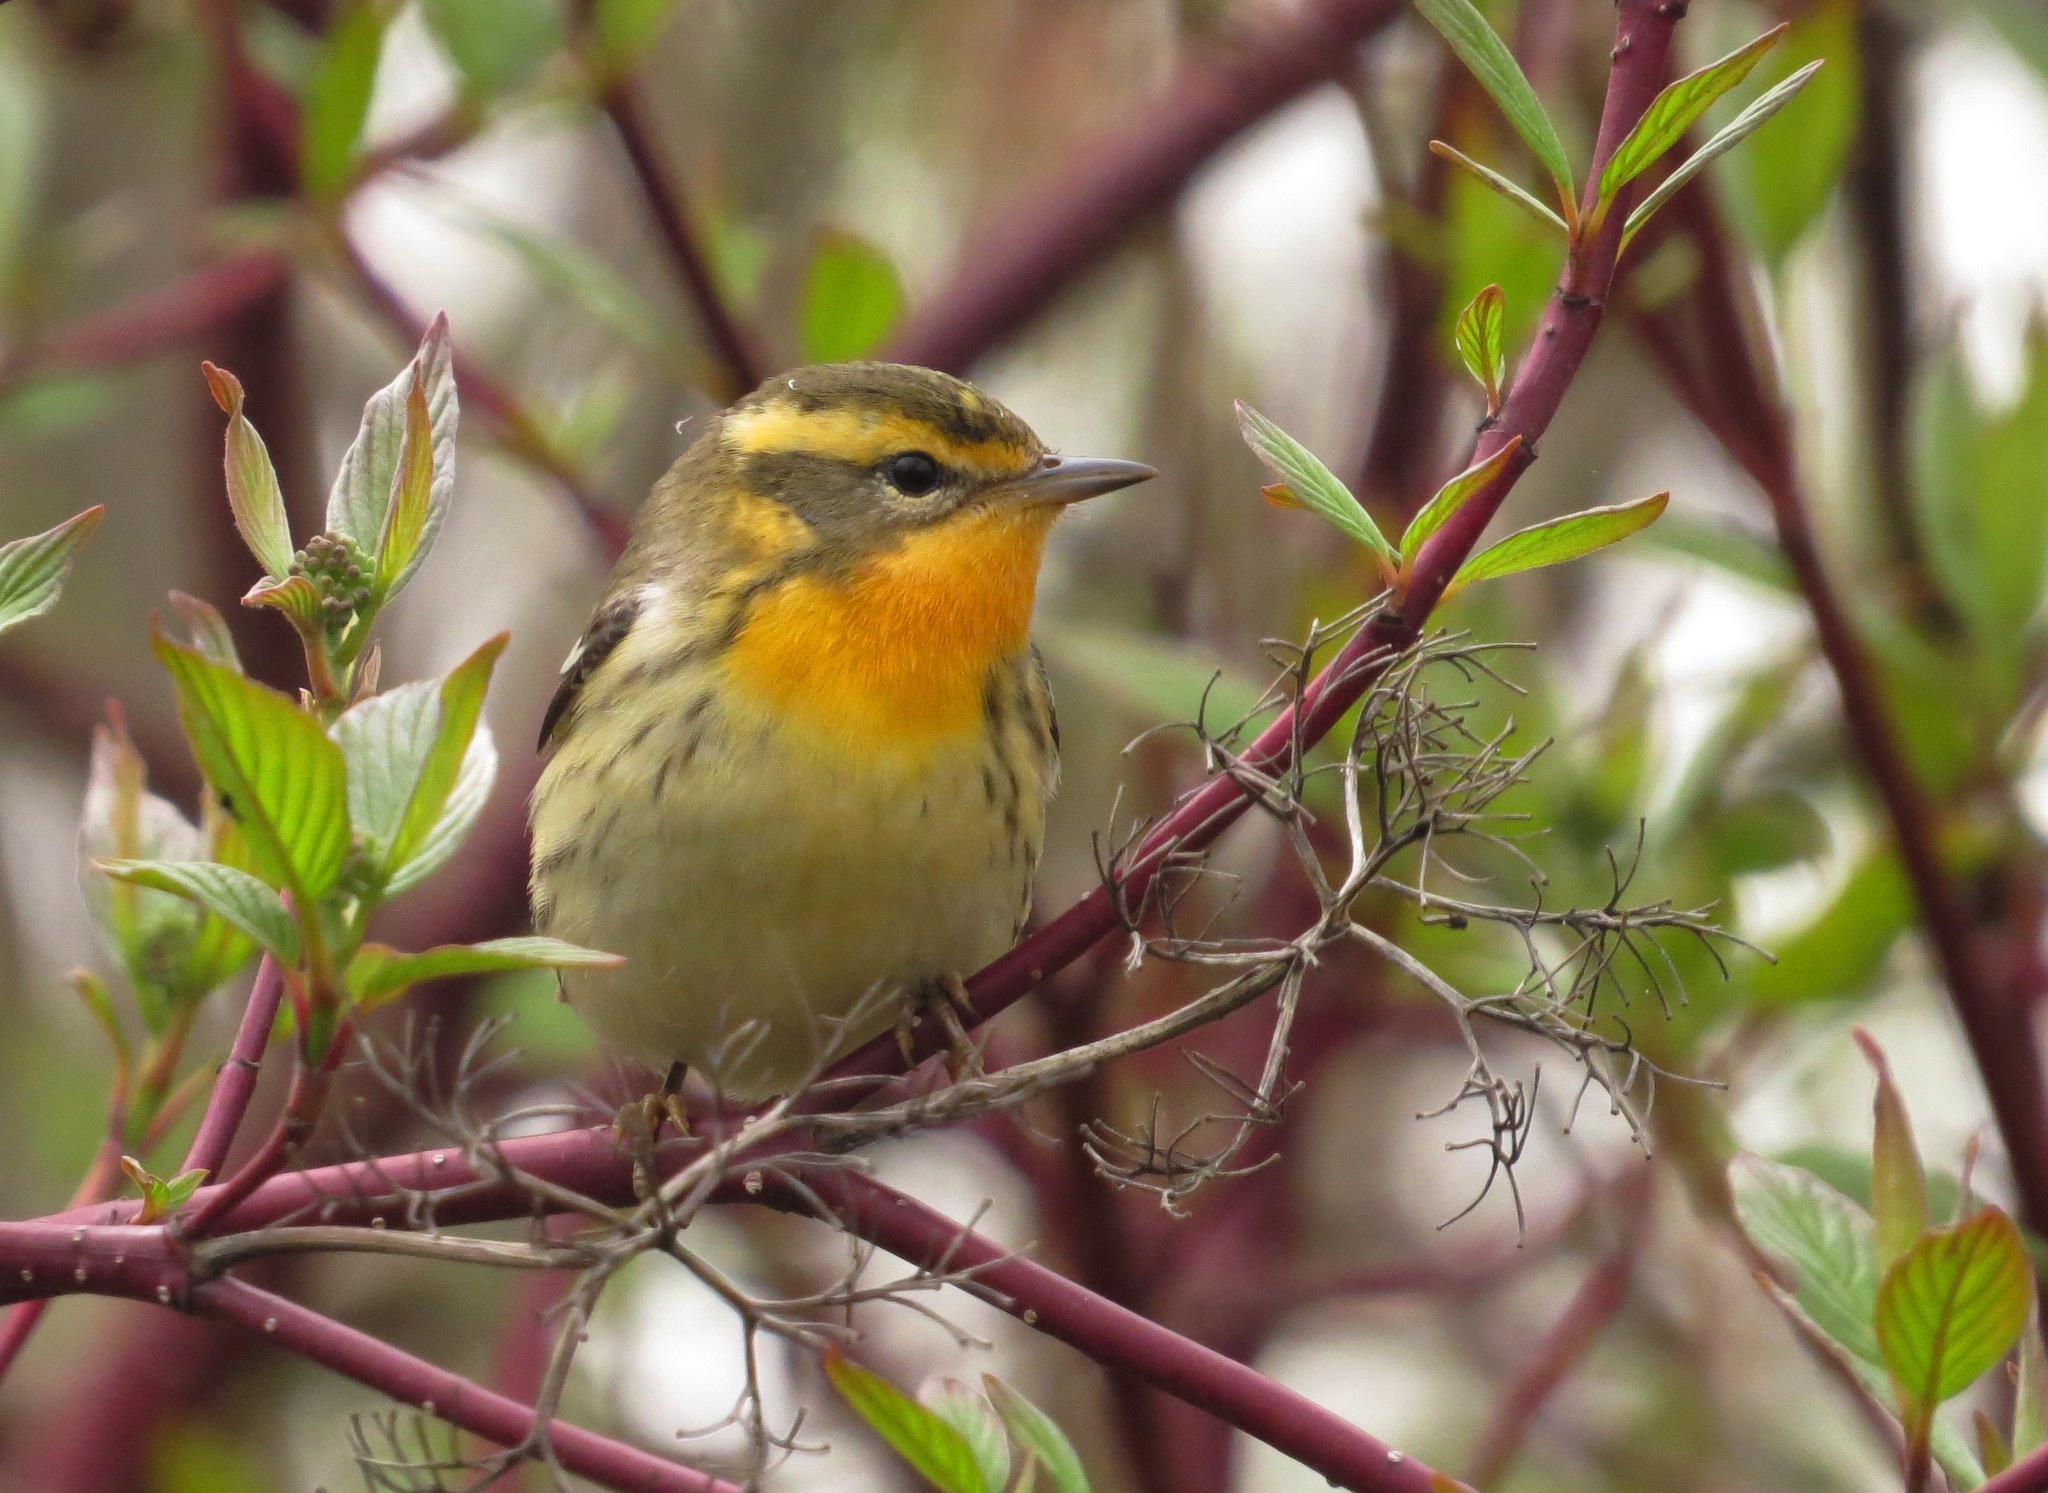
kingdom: Animalia
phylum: Chordata
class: Aves
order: Passeriformes
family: Parulidae
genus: Setophaga
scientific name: Setophaga fusca
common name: Blackburnian warbler
